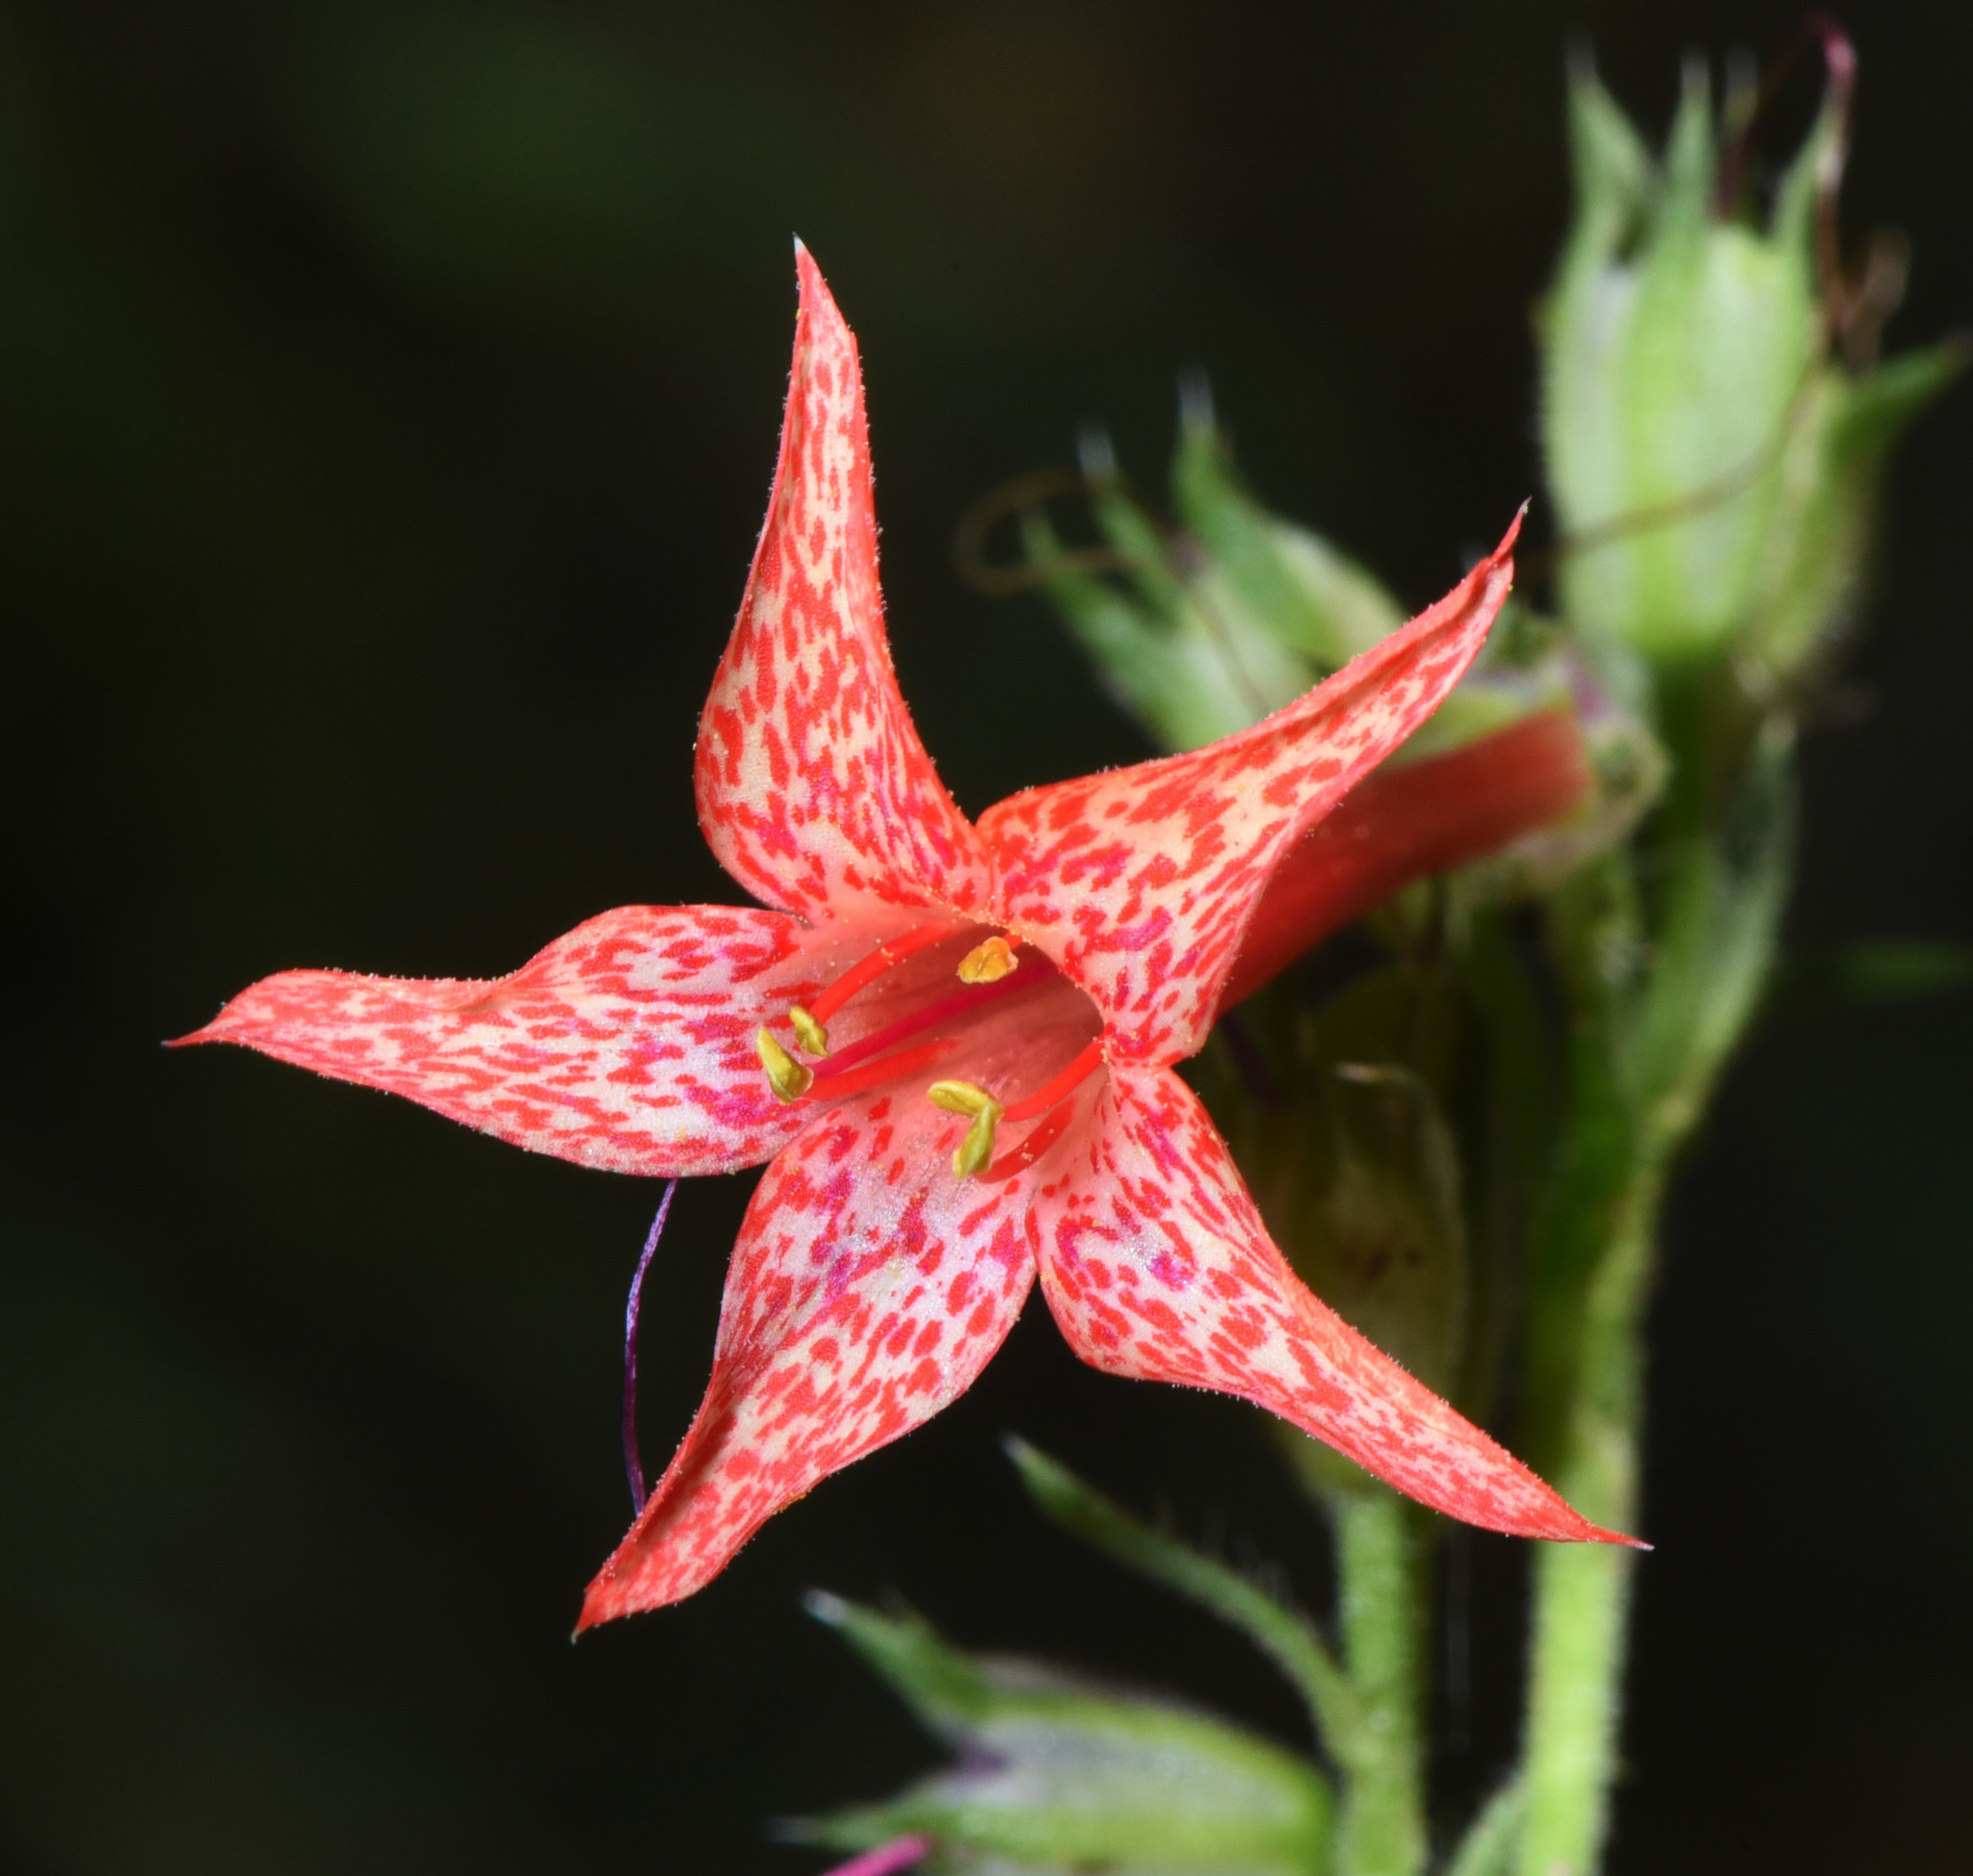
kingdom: Plantae
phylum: Tracheophyta
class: Magnoliopsida
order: Ericales
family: Polemoniaceae
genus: Ipomopsis
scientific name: Ipomopsis aggregata
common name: Scarlet gilia
